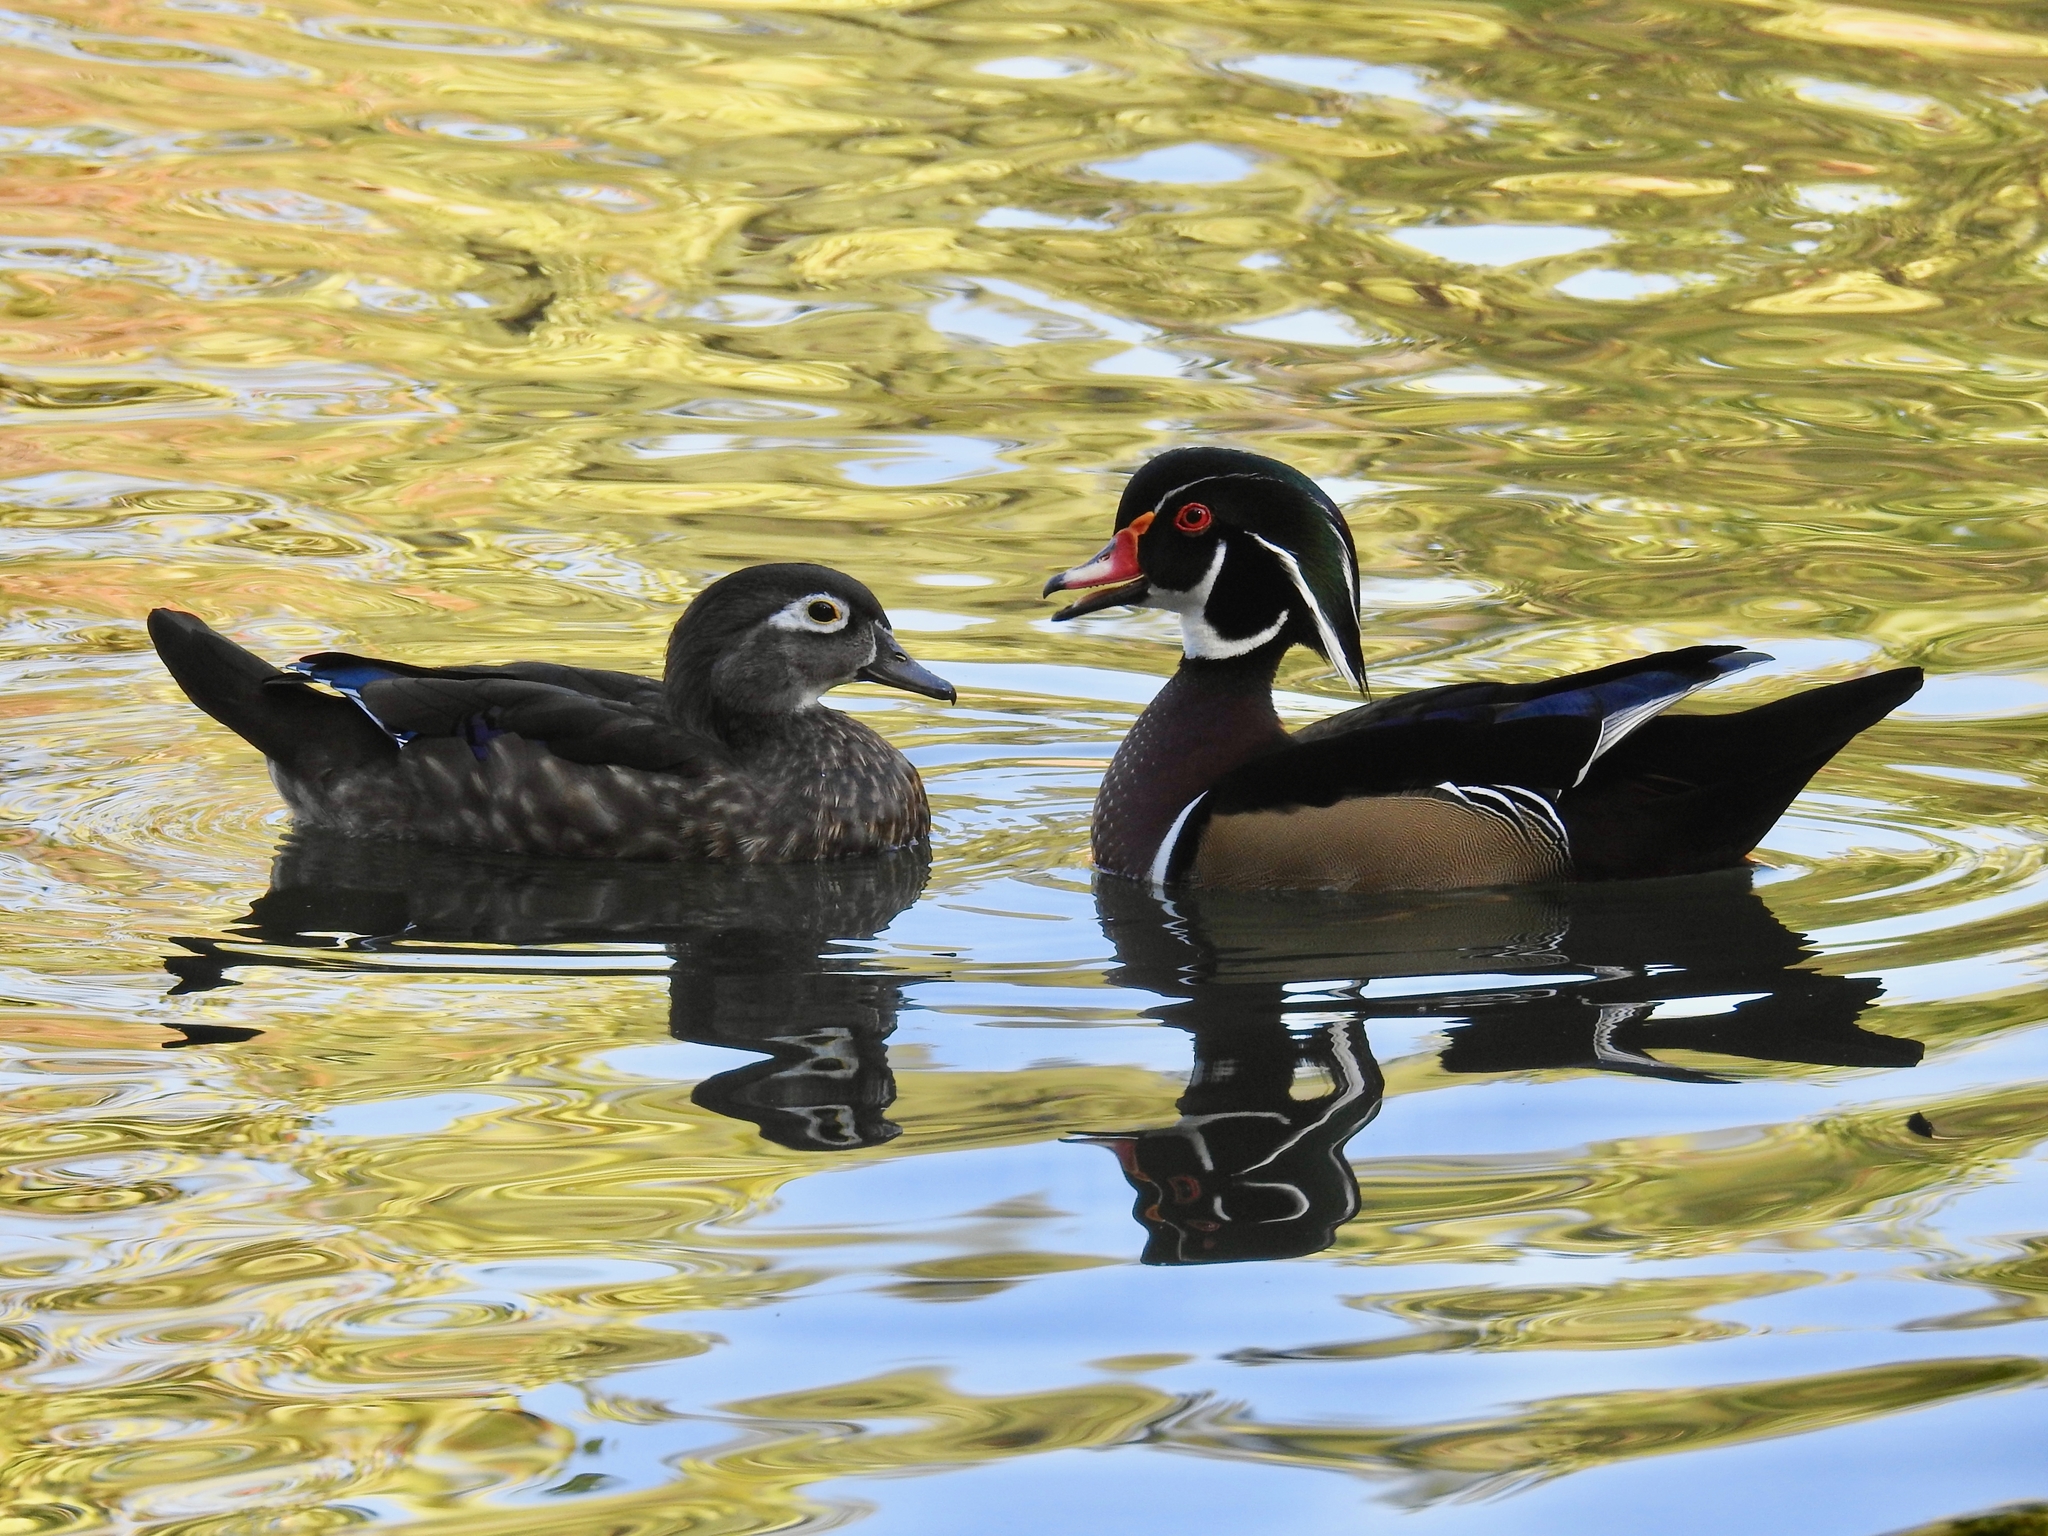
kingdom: Animalia
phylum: Chordata
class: Aves
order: Anseriformes
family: Anatidae
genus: Aix
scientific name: Aix sponsa
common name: Wood duck
